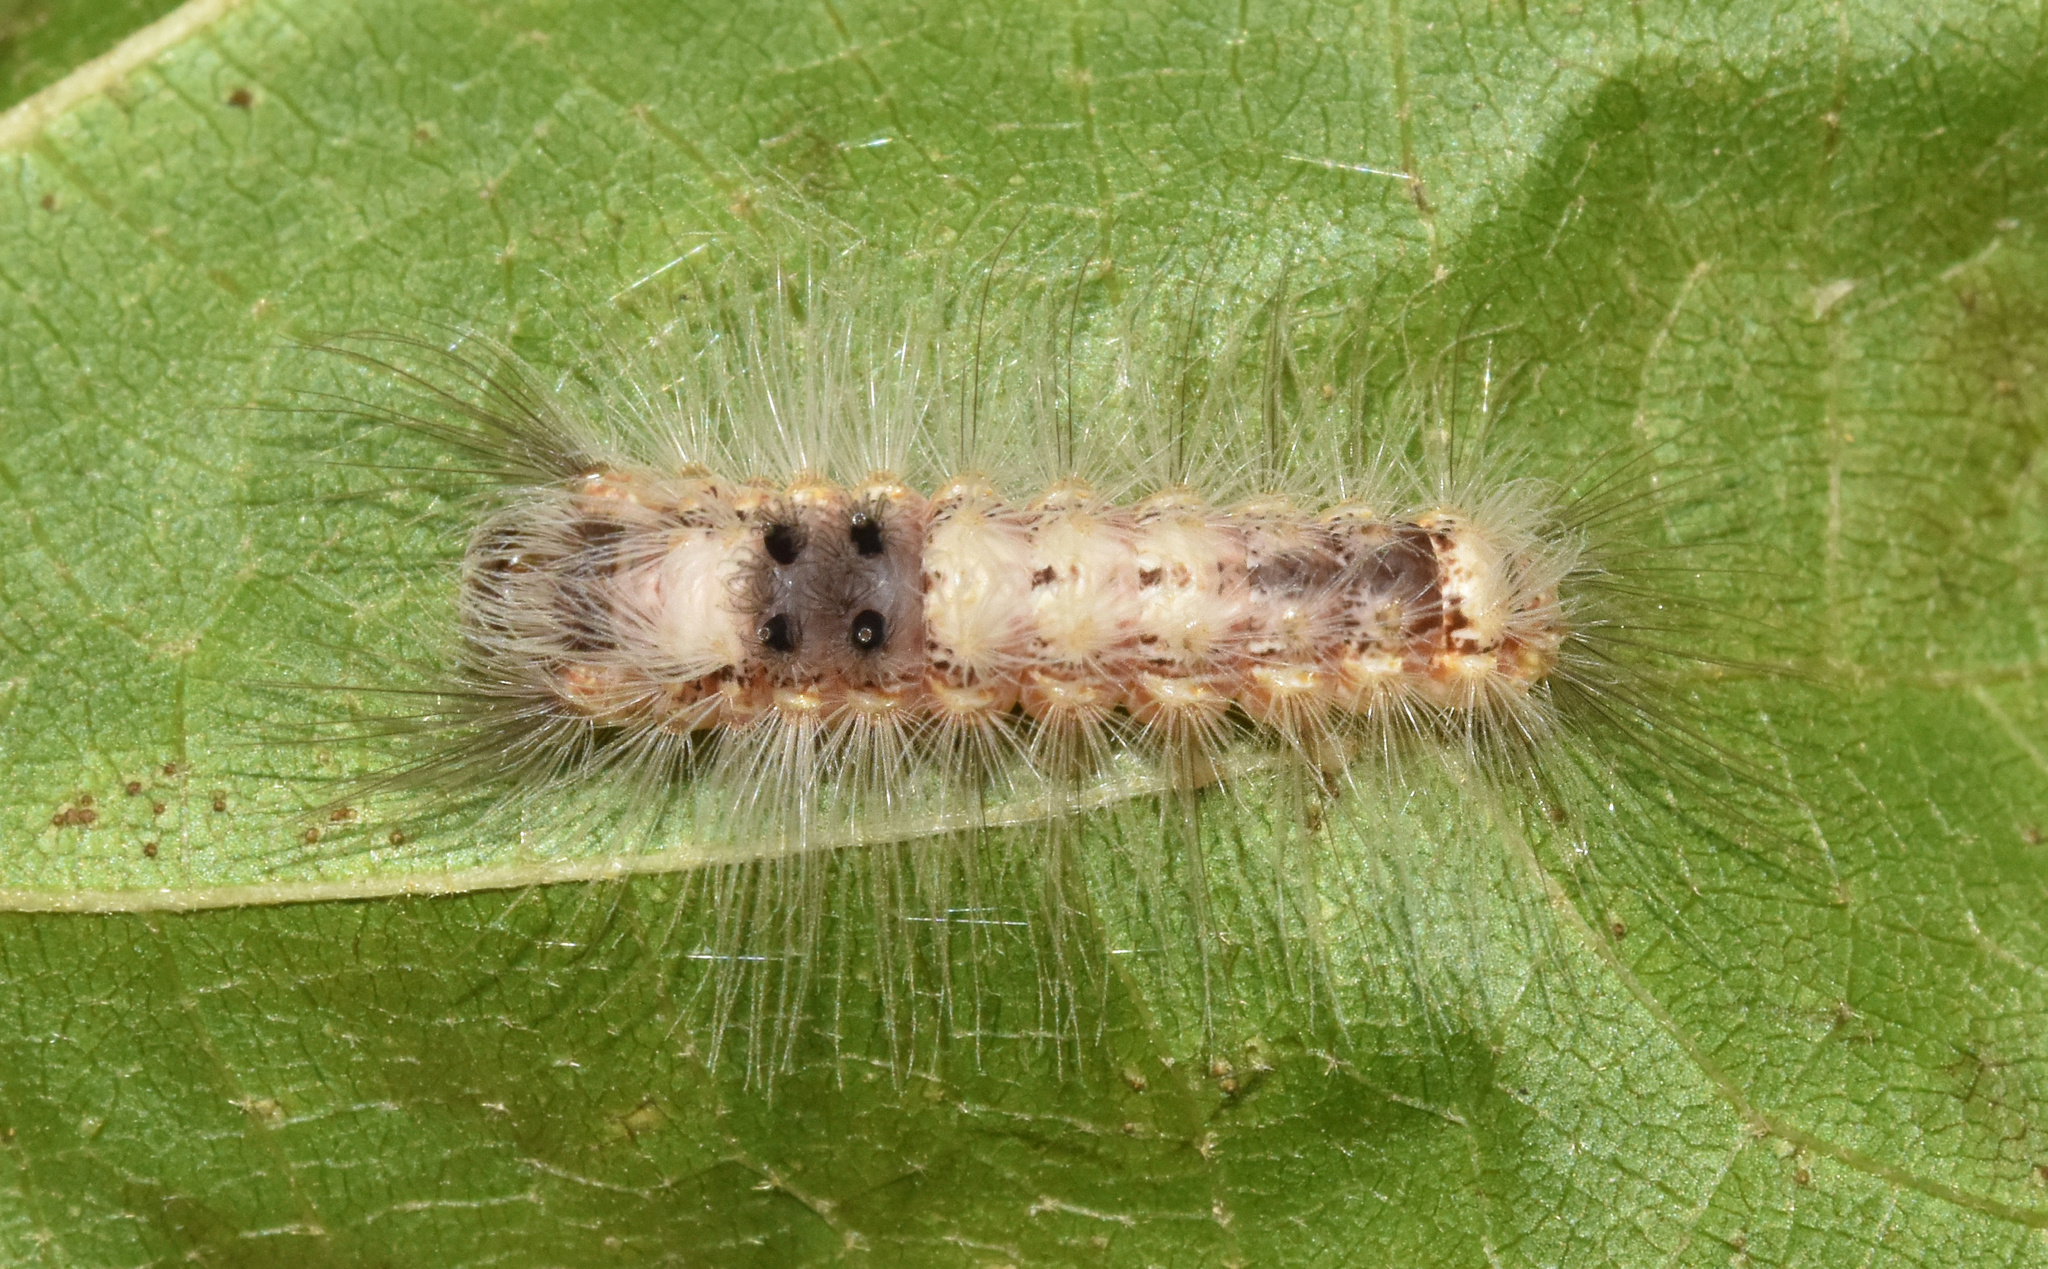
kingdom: Animalia
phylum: Arthropoda
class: Insecta
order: Lepidoptera
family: Erebidae
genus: Pteredoa
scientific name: Pteredoa monosticta
